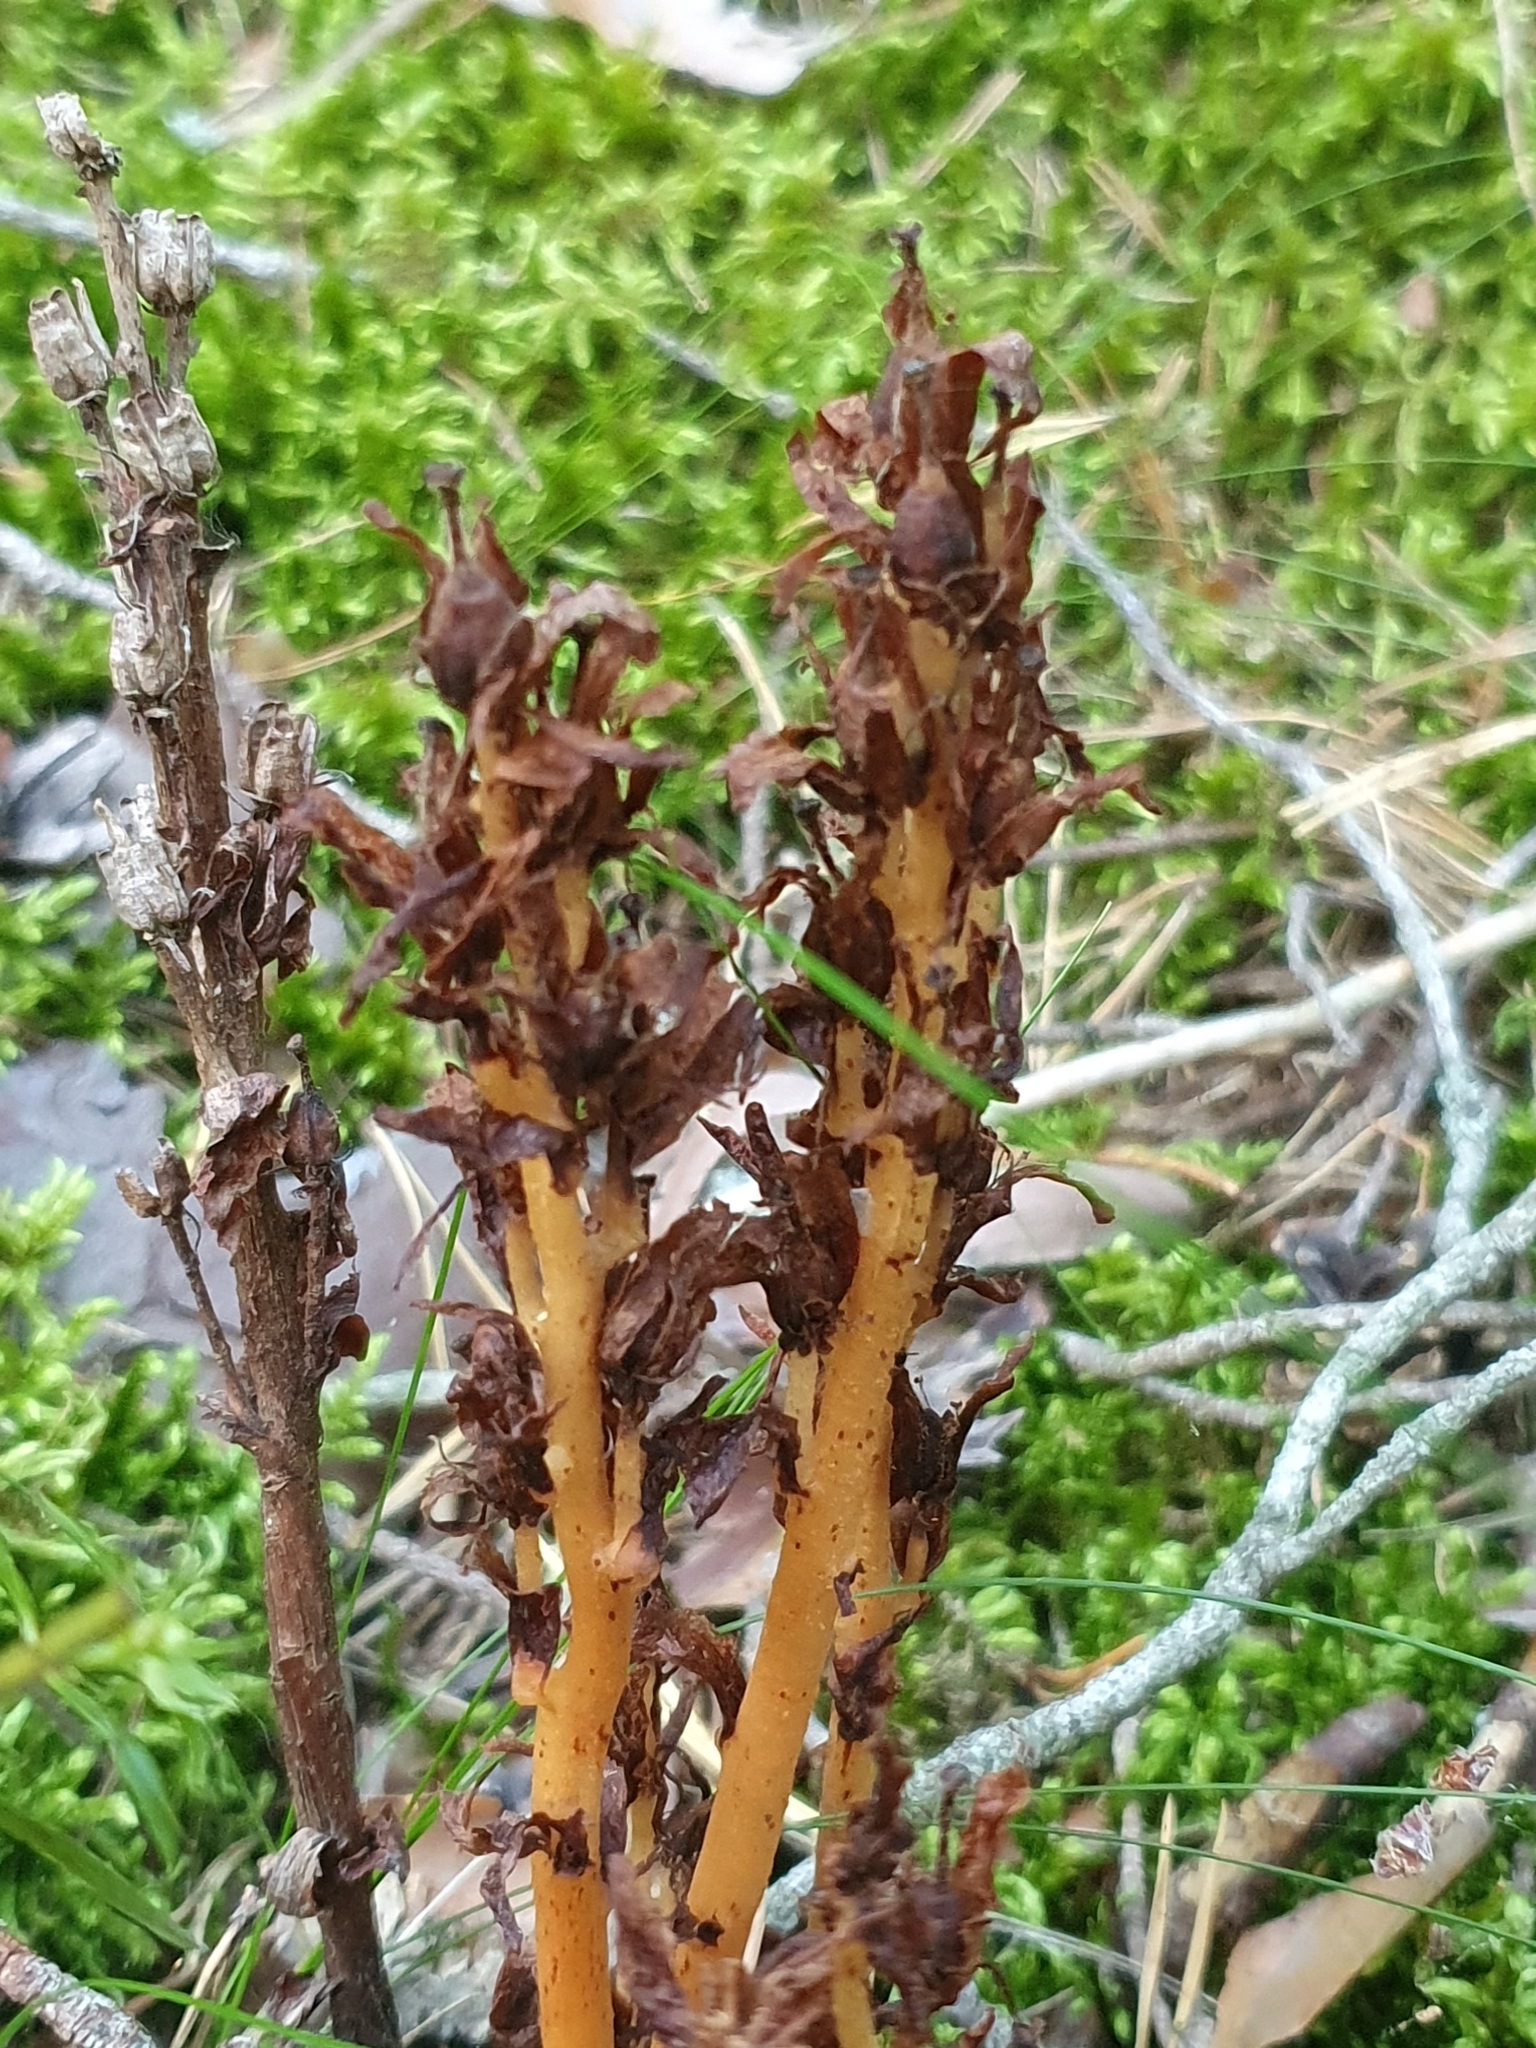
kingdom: Plantae
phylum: Tracheophyta
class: Magnoliopsida
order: Ericales
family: Ericaceae
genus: Hypopitys
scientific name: Hypopitys monotropa
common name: Yellow bird's-nest
